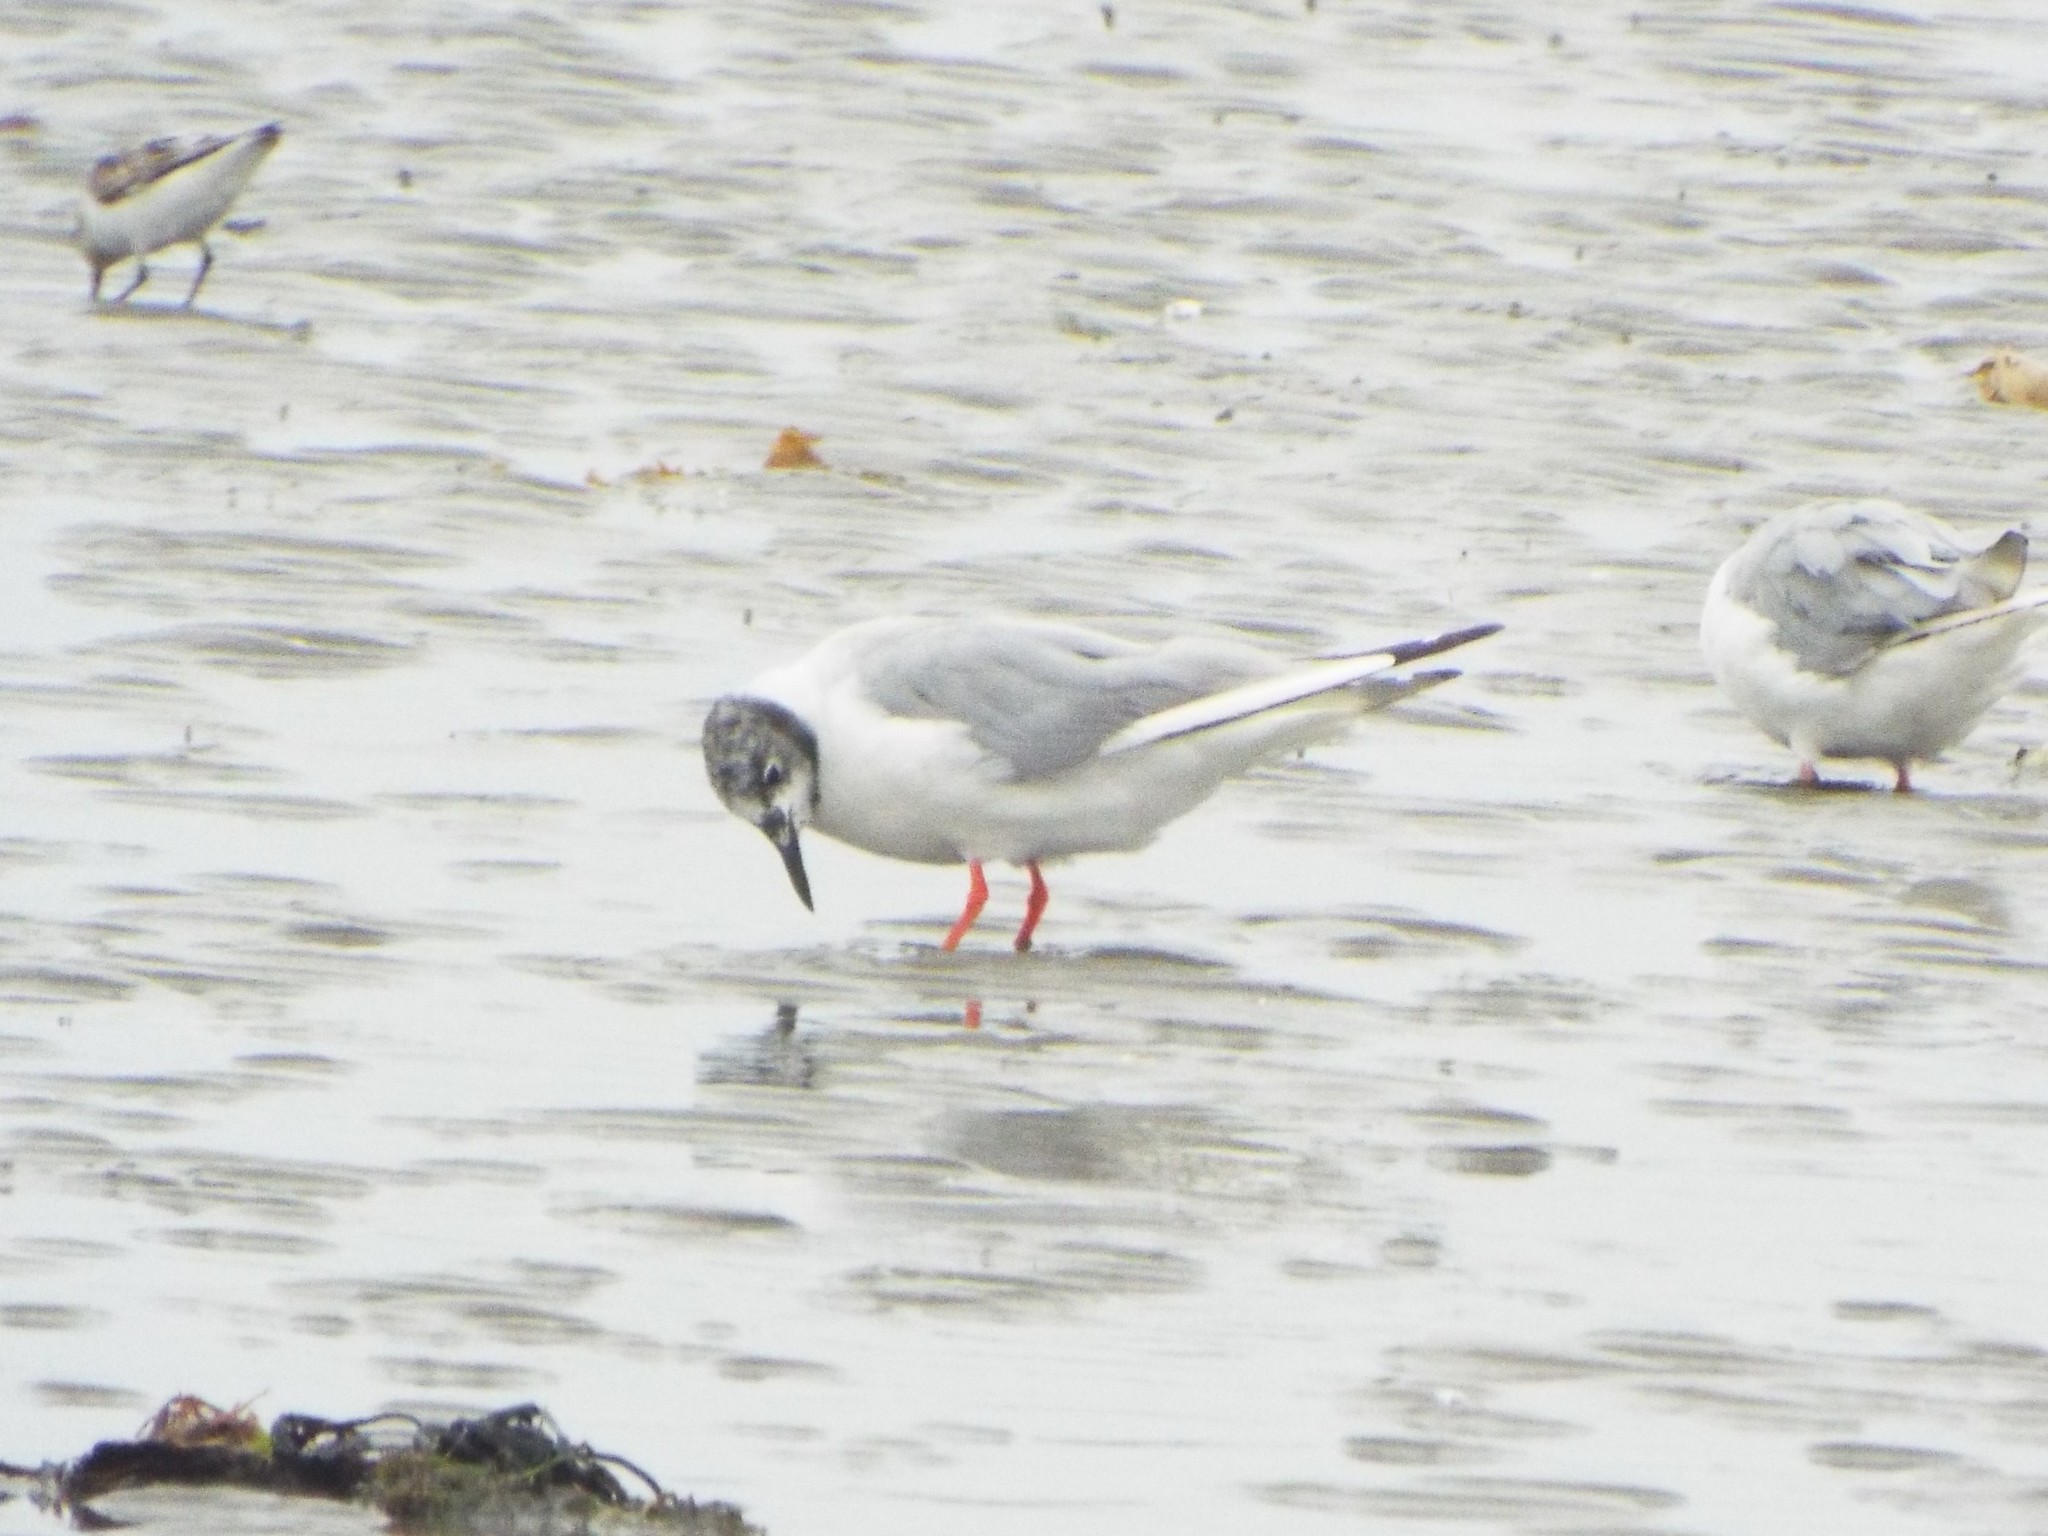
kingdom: Animalia
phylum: Chordata
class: Aves
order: Charadriiformes
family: Laridae
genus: Chroicocephalus
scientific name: Chroicocephalus philadelphia
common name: Bonaparte's gull
